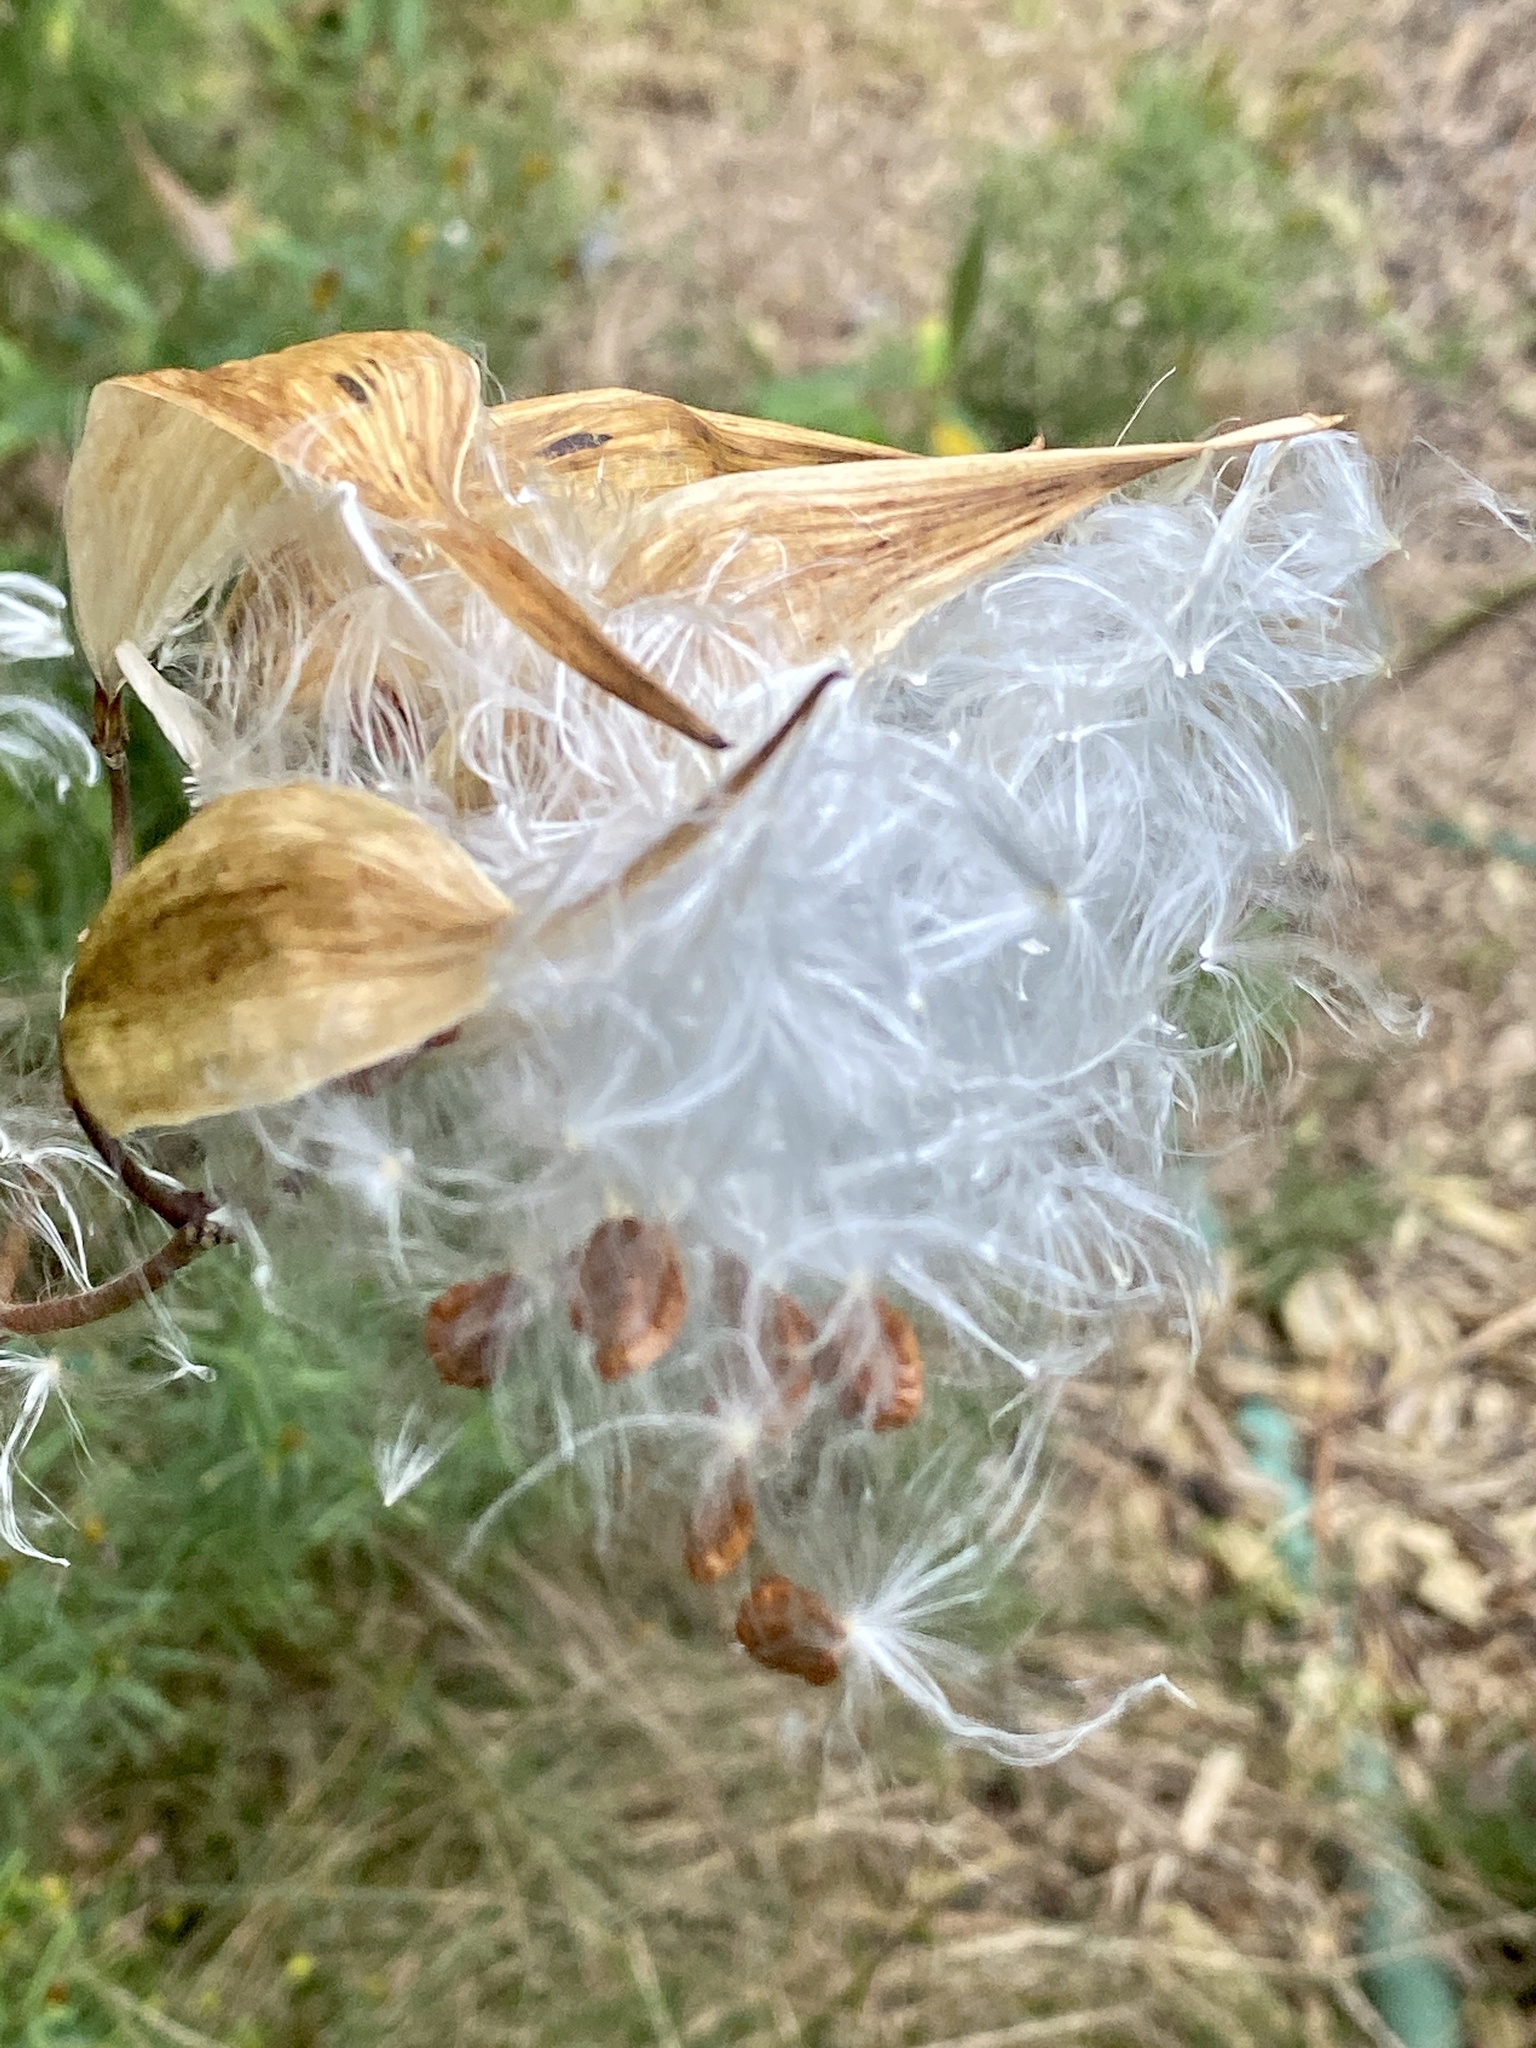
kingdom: Plantae
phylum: Tracheophyta
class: Magnoliopsida
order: Gentianales
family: Apocynaceae
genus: Asclepias
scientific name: Asclepias incarnata
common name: Swamp milkweed
